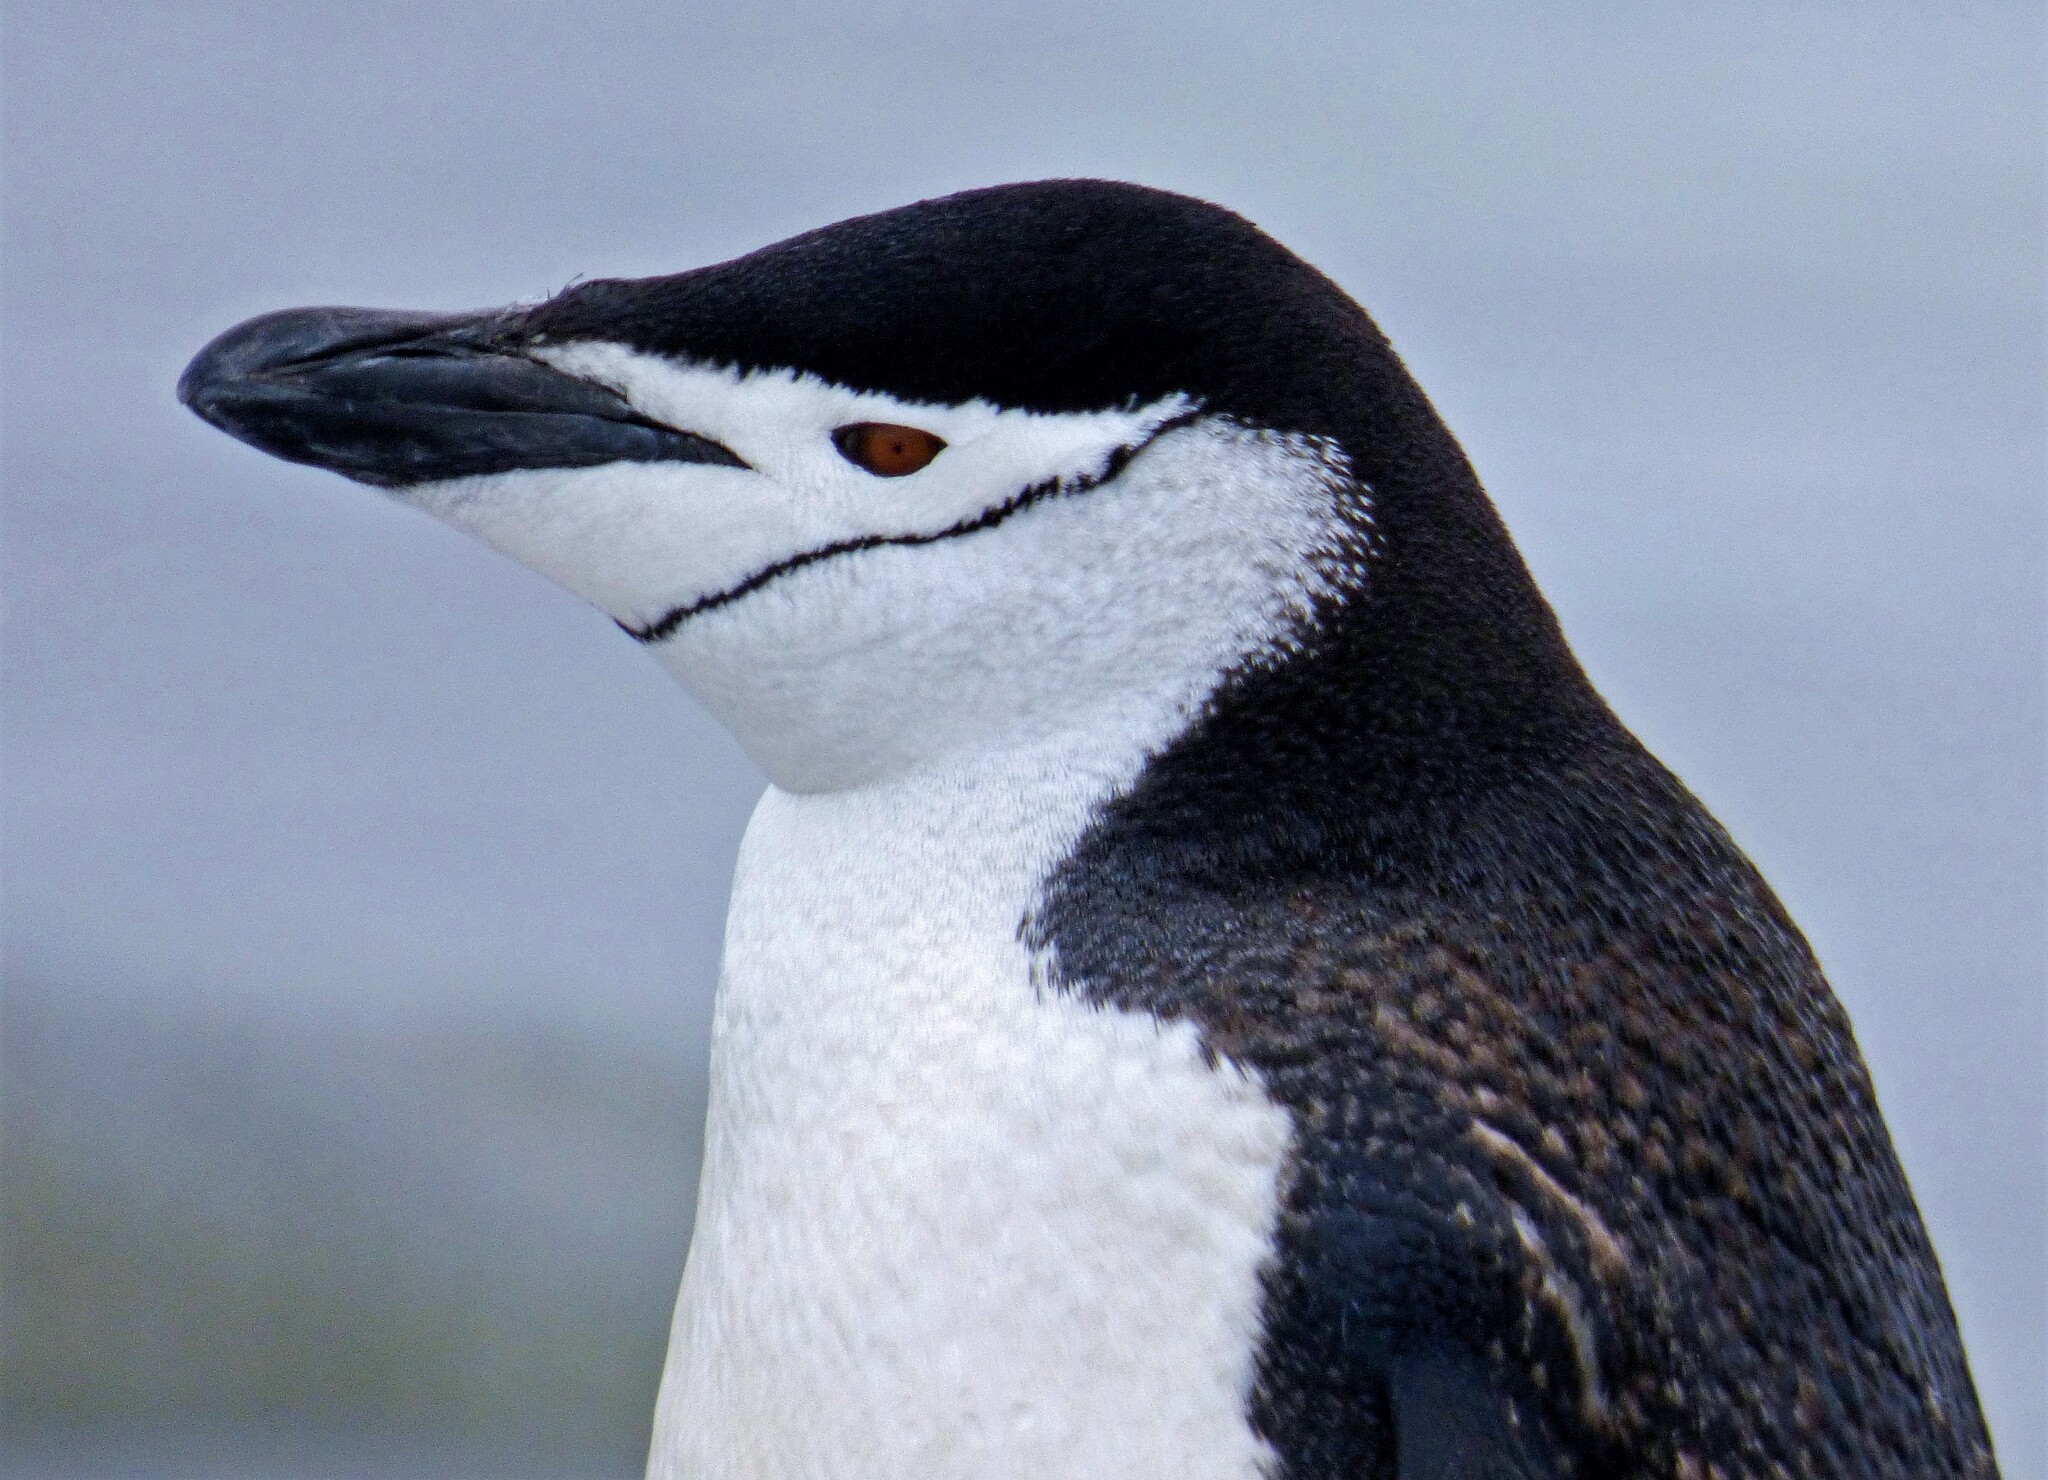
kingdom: Animalia
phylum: Chordata
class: Aves
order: Sphenisciformes
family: Spheniscidae
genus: Pygoscelis
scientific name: Pygoscelis antarcticus
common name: Chinstrap penguin
